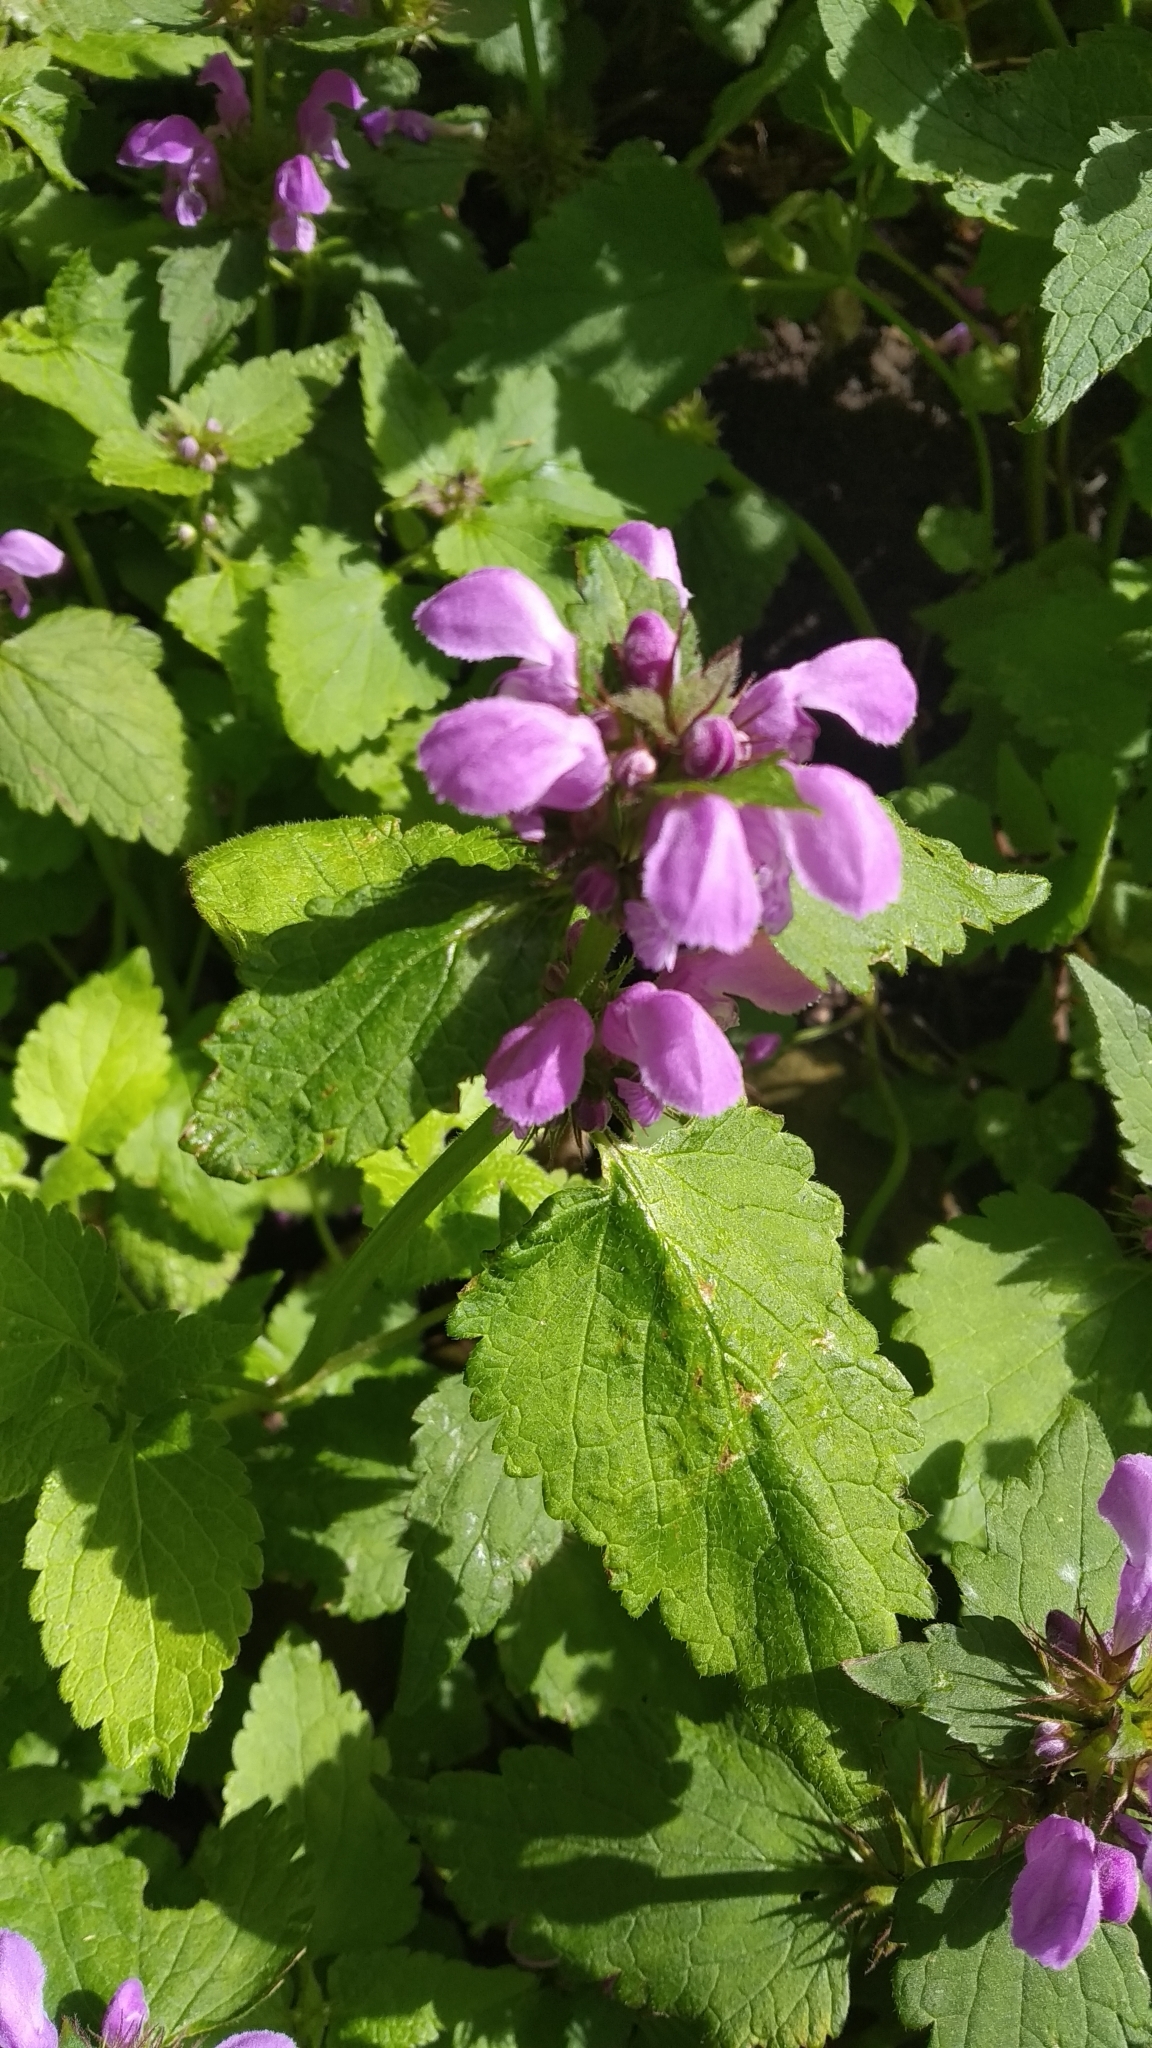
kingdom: Plantae
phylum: Tracheophyta
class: Magnoliopsida
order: Lamiales
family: Lamiaceae
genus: Lamium
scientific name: Lamium maculatum
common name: Spotted dead-nettle
